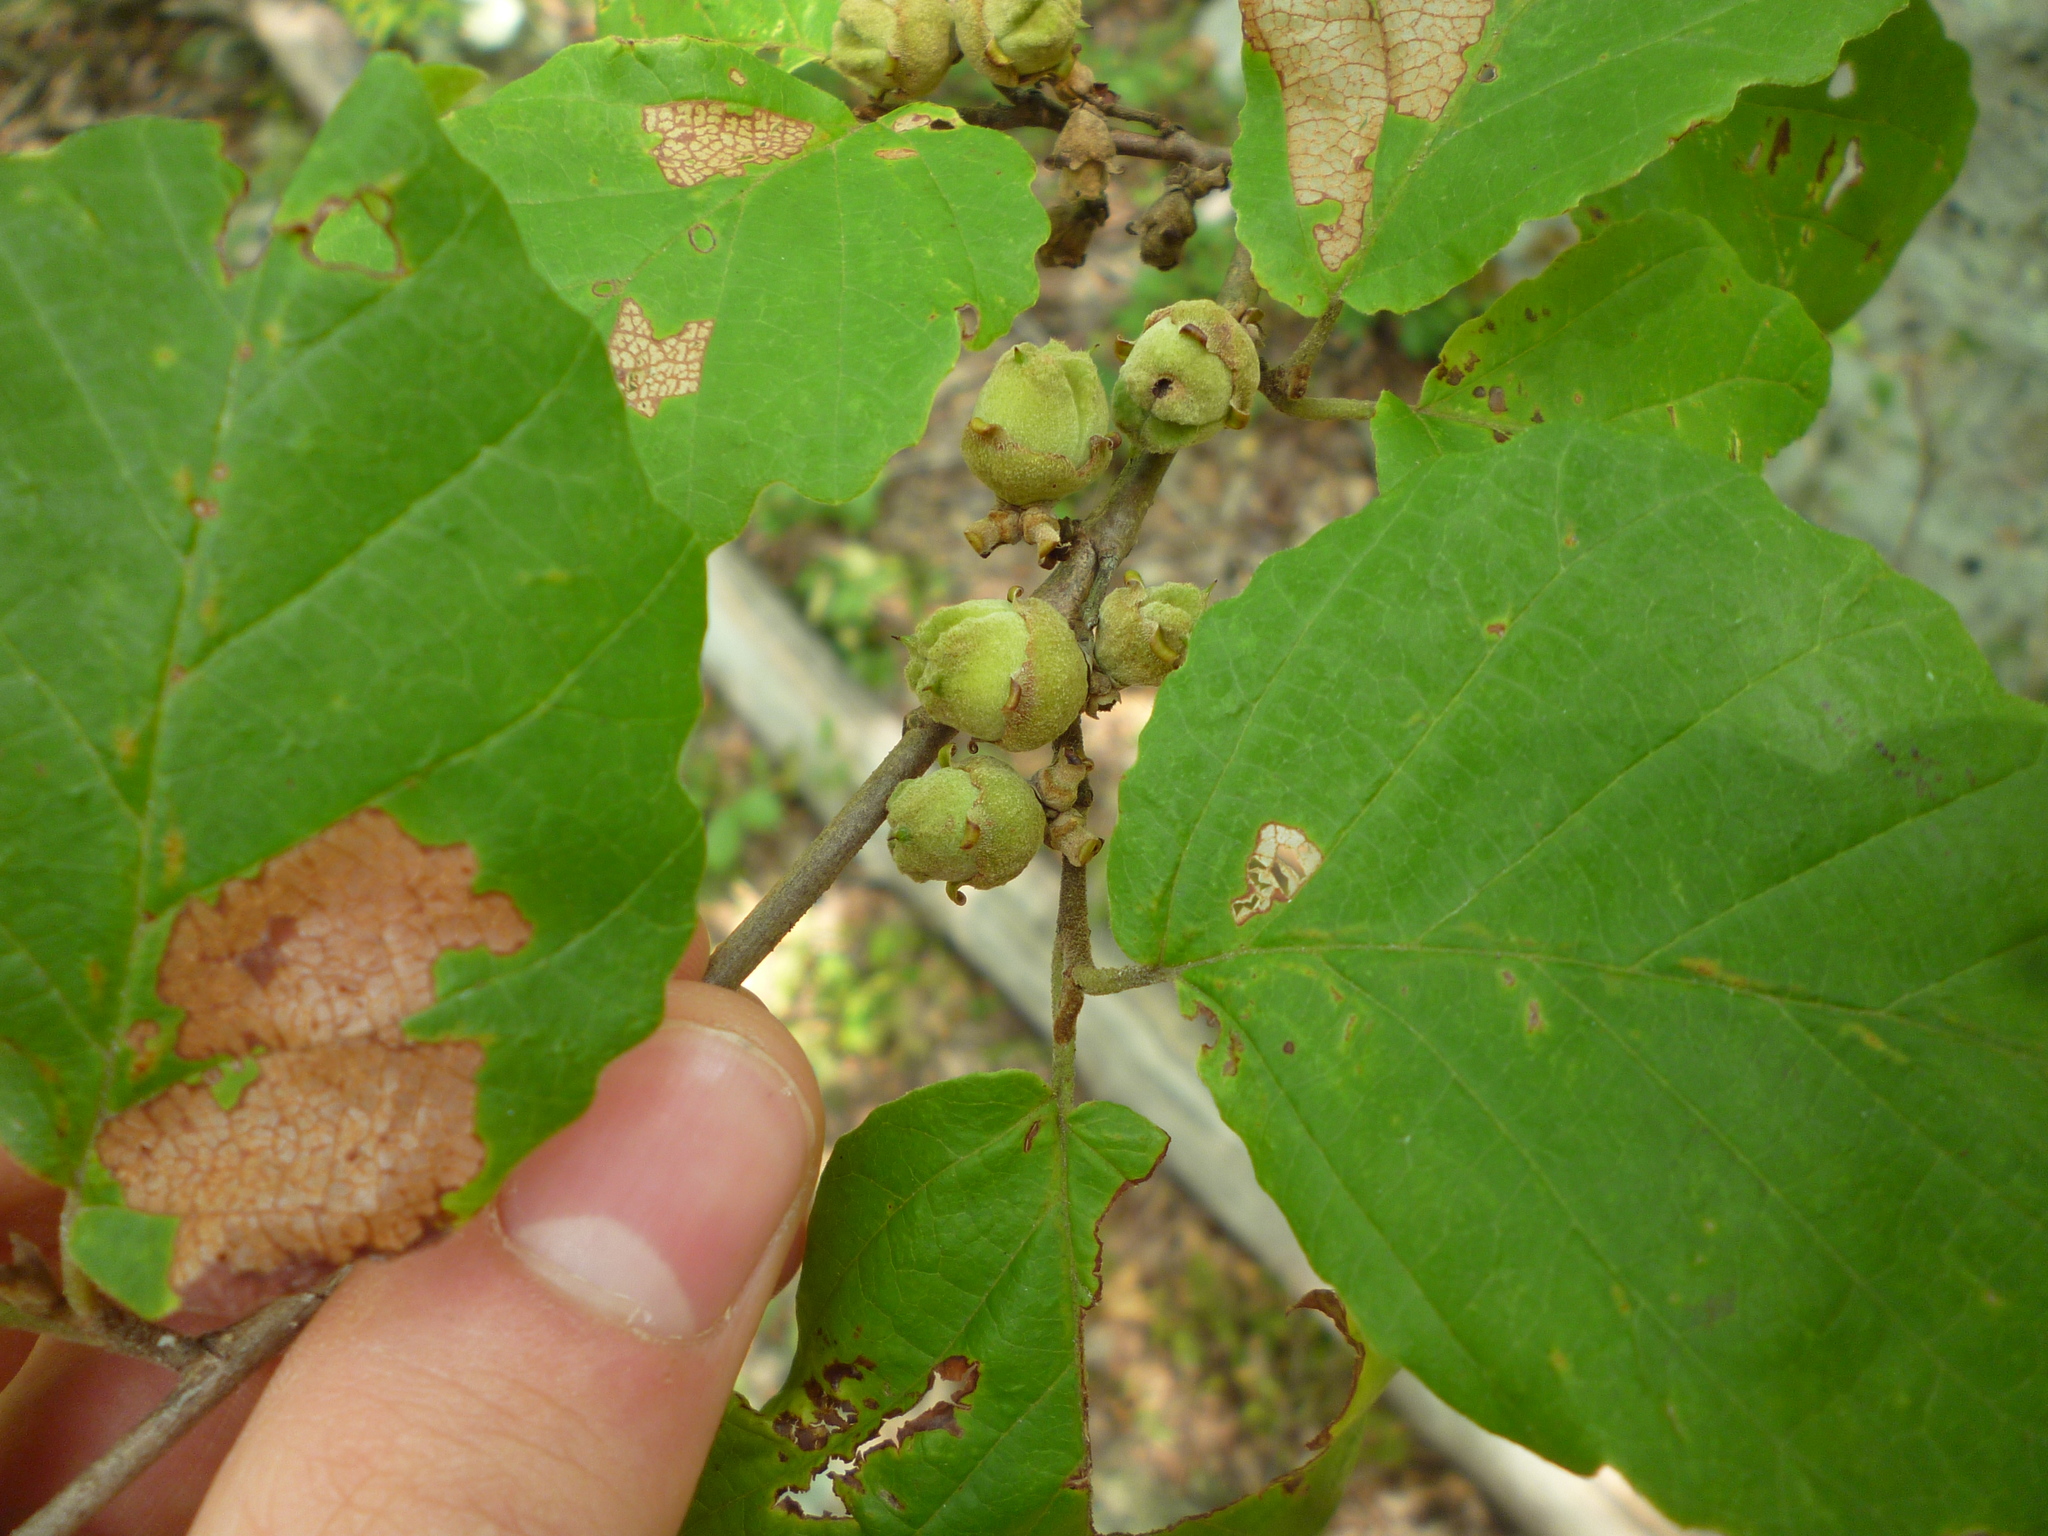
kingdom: Plantae
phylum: Tracheophyta
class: Magnoliopsida
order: Saxifragales
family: Hamamelidaceae
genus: Hamamelis
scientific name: Hamamelis virginiana
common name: Witch-hazel
